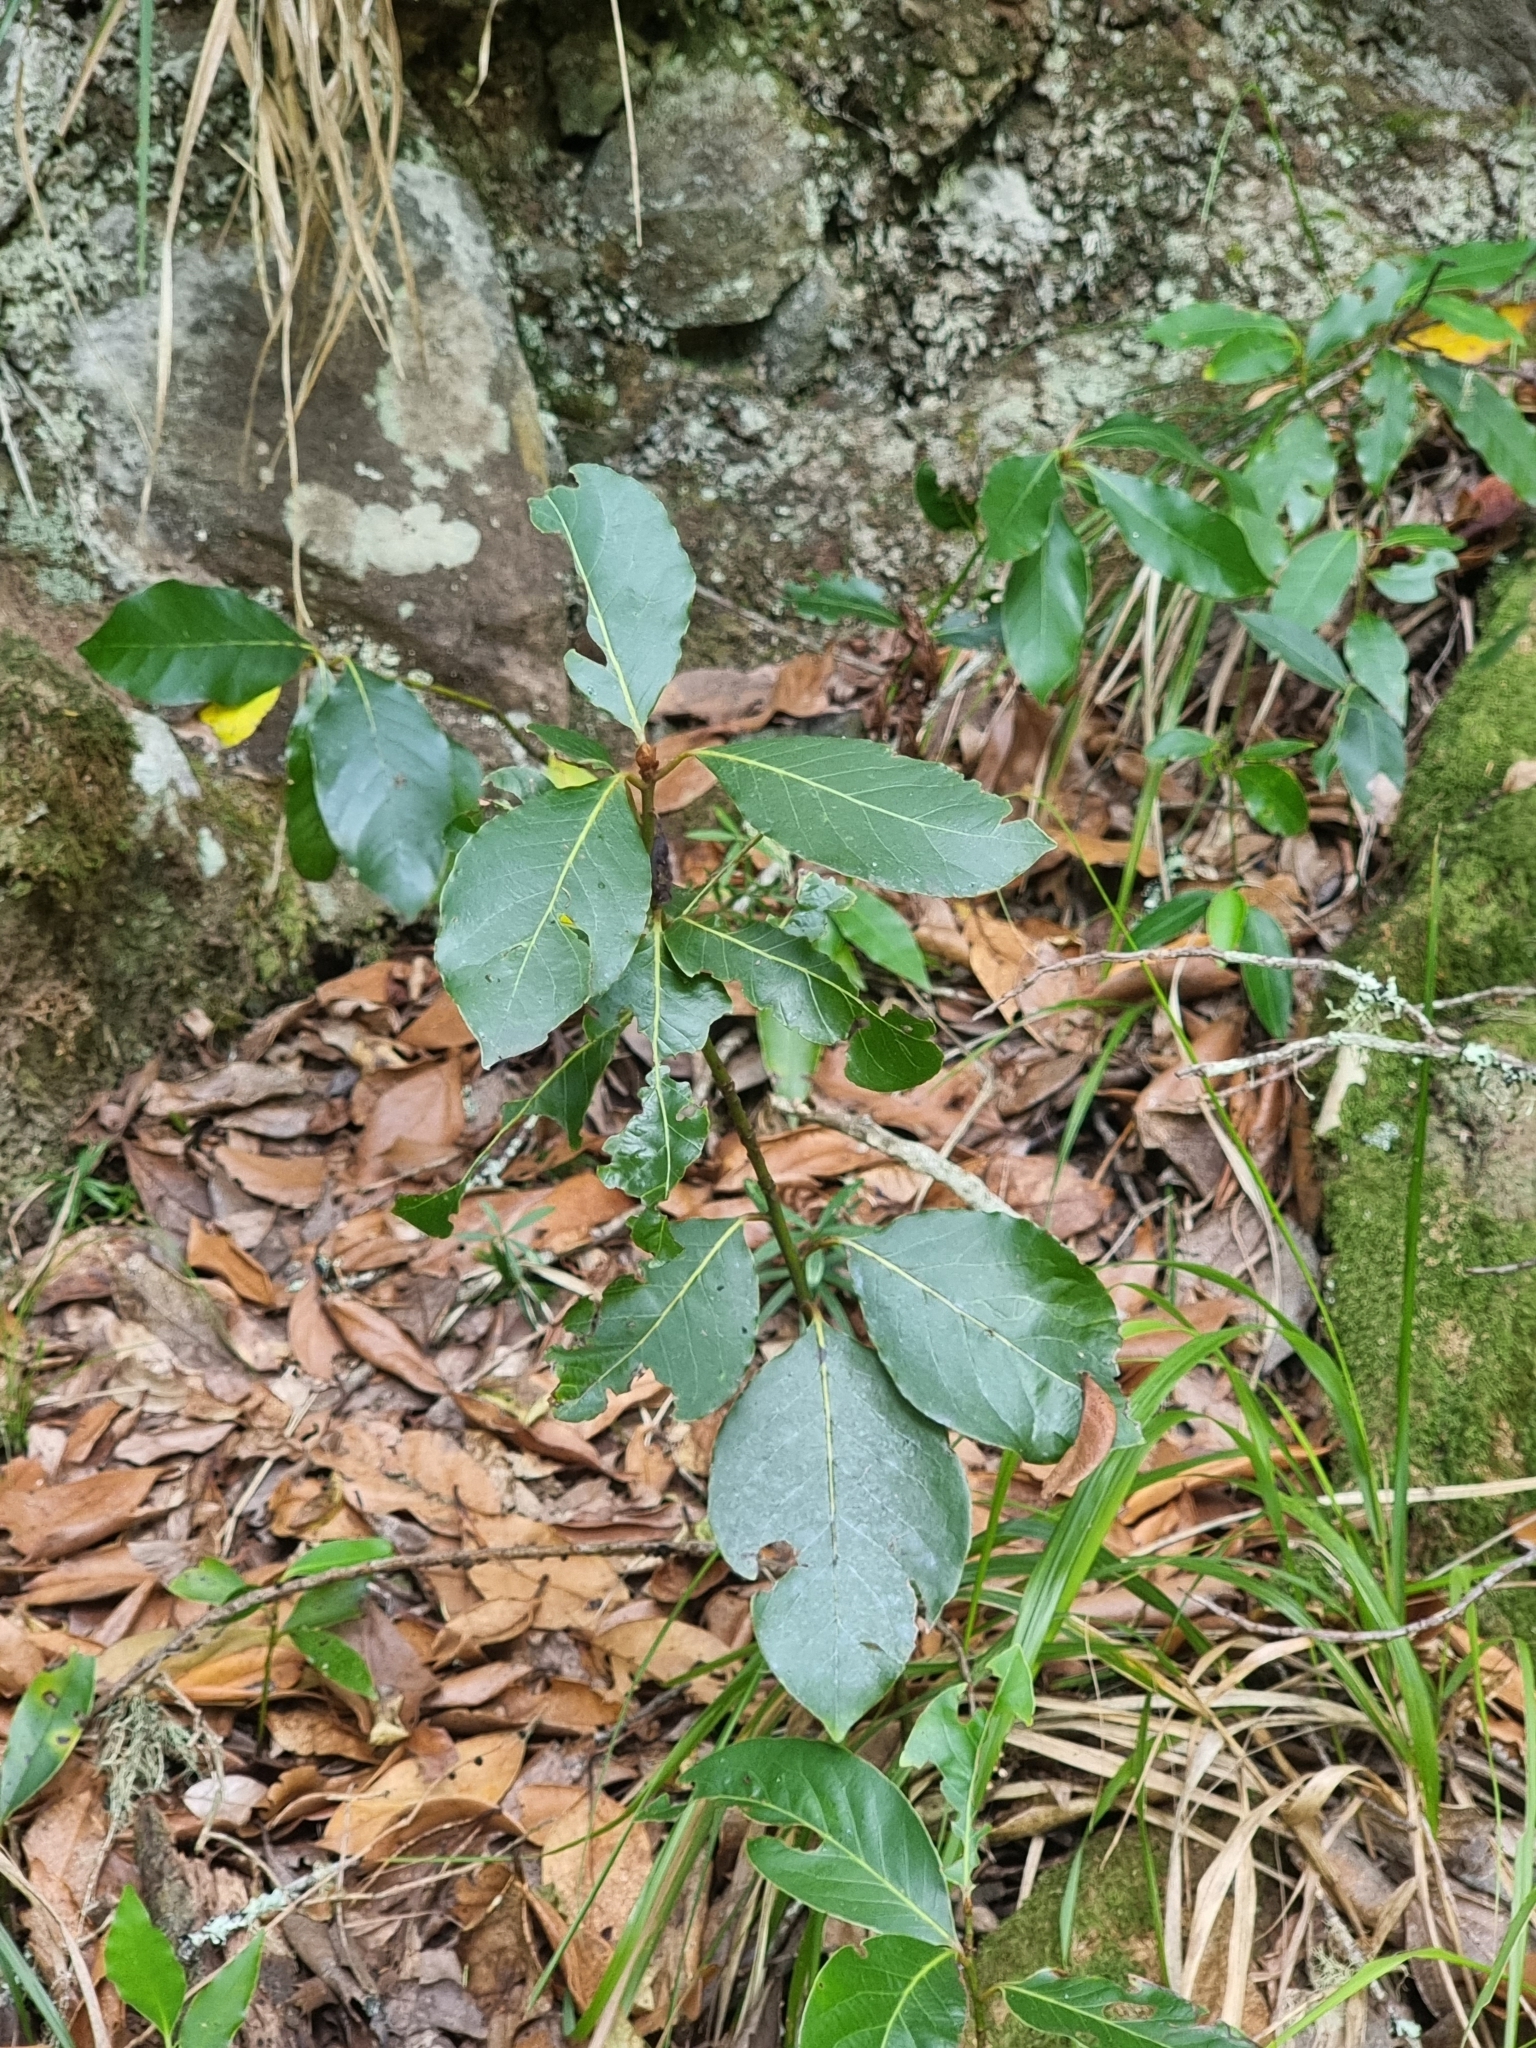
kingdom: Plantae
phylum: Tracheophyta
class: Magnoliopsida
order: Laurales
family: Lauraceae
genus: Laurus
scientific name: Laurus novocanariensis
